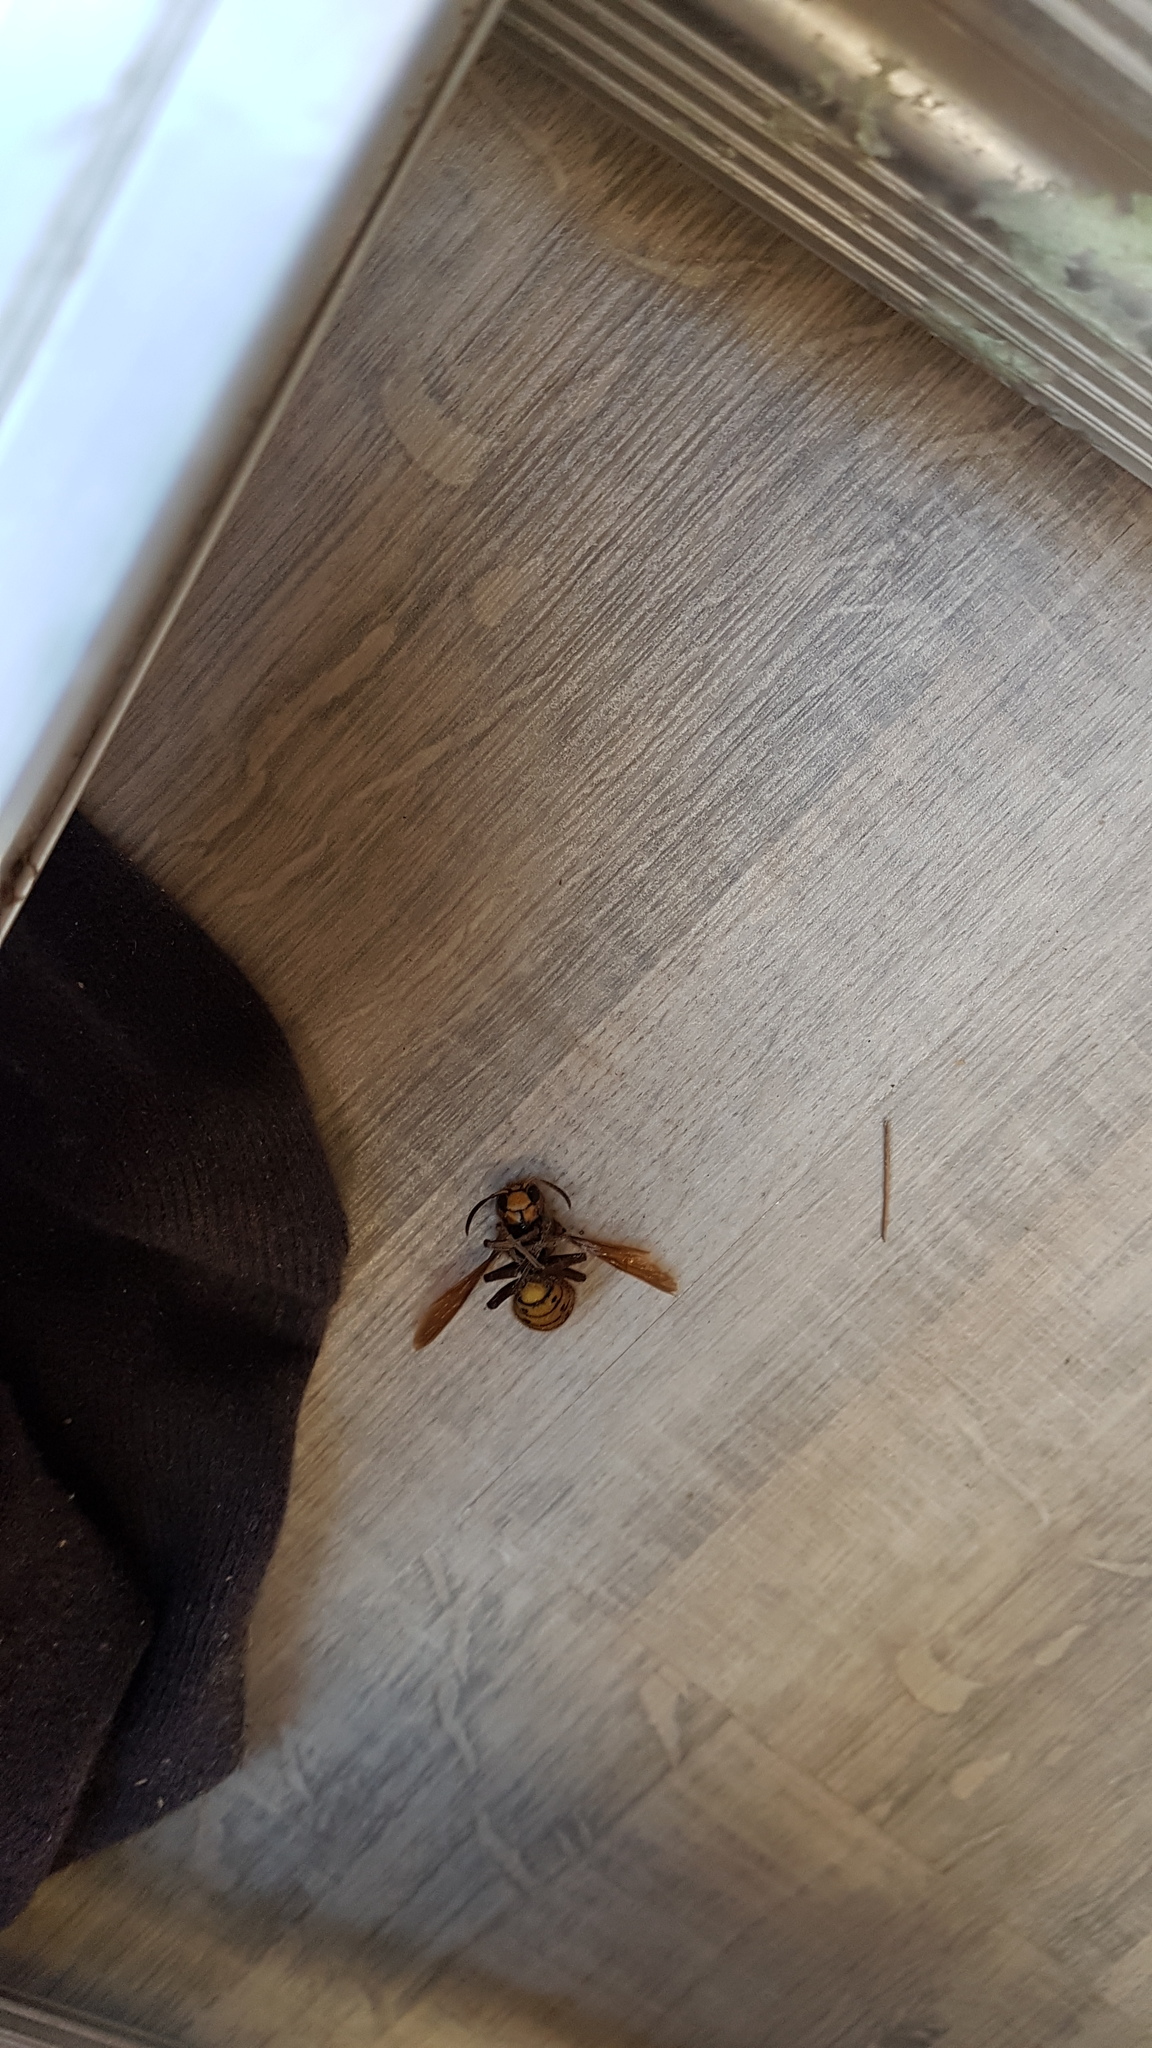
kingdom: Animalia
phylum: Arthropoda
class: Insecta
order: Hymenoptera
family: Vespidae
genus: Vespa
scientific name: Vespa crabro
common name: Hornet
